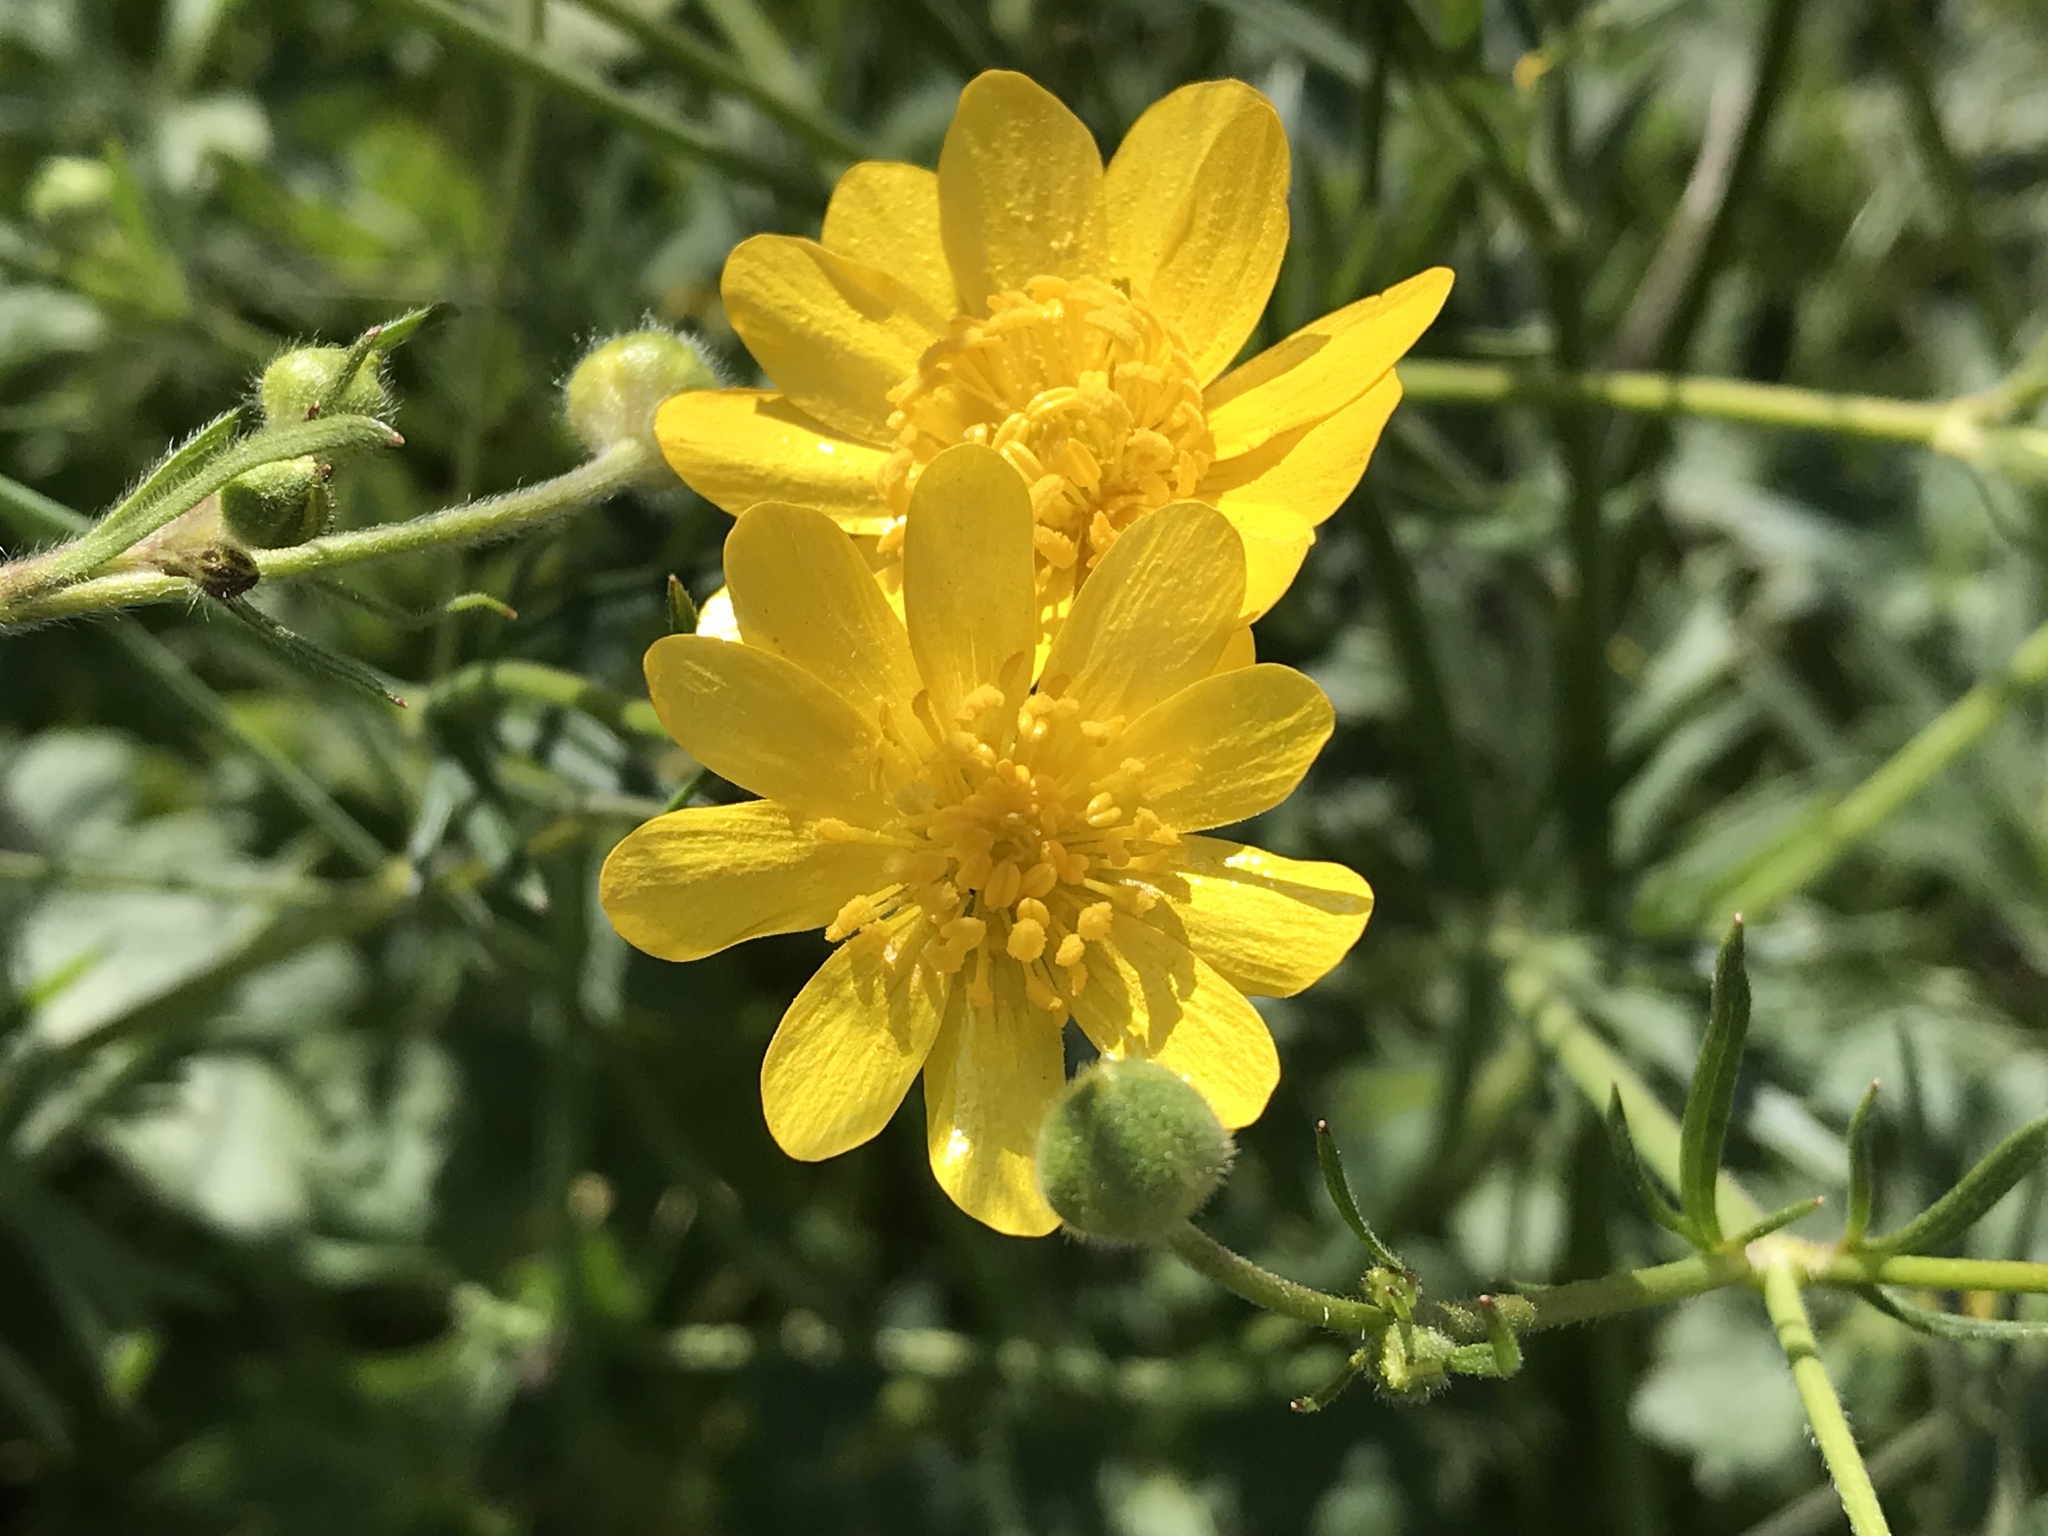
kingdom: Plantae
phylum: Tracheophyta
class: Magnoliopsida
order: Ranunculales
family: Ranunculaceae
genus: Ranunculus
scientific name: Ranunculus californicus
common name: California buttercup
